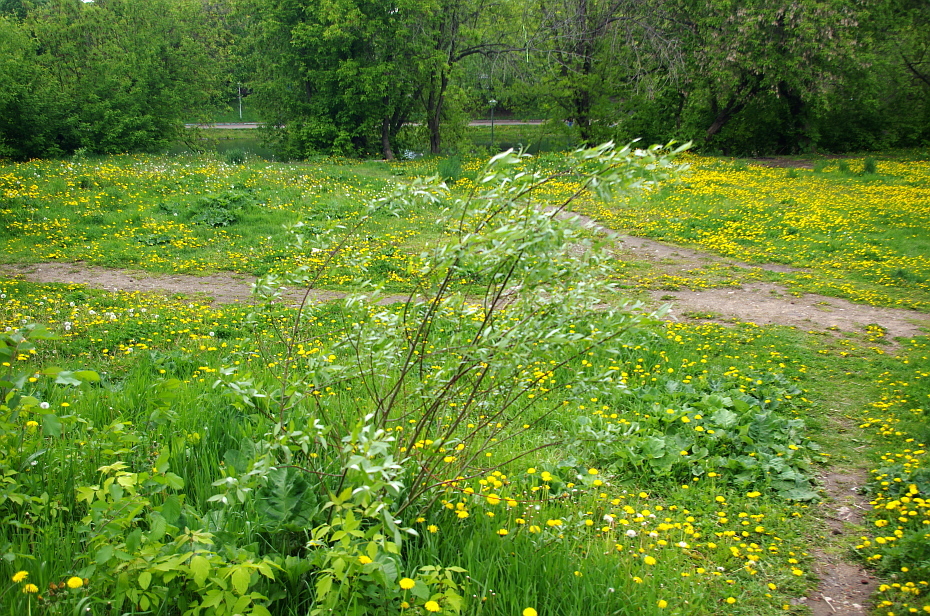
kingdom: Plantae
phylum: Tracheophyta
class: Magnoliopsida
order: Malpighiales
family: Salicaceae
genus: Salix
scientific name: Salix alba
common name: White willow
